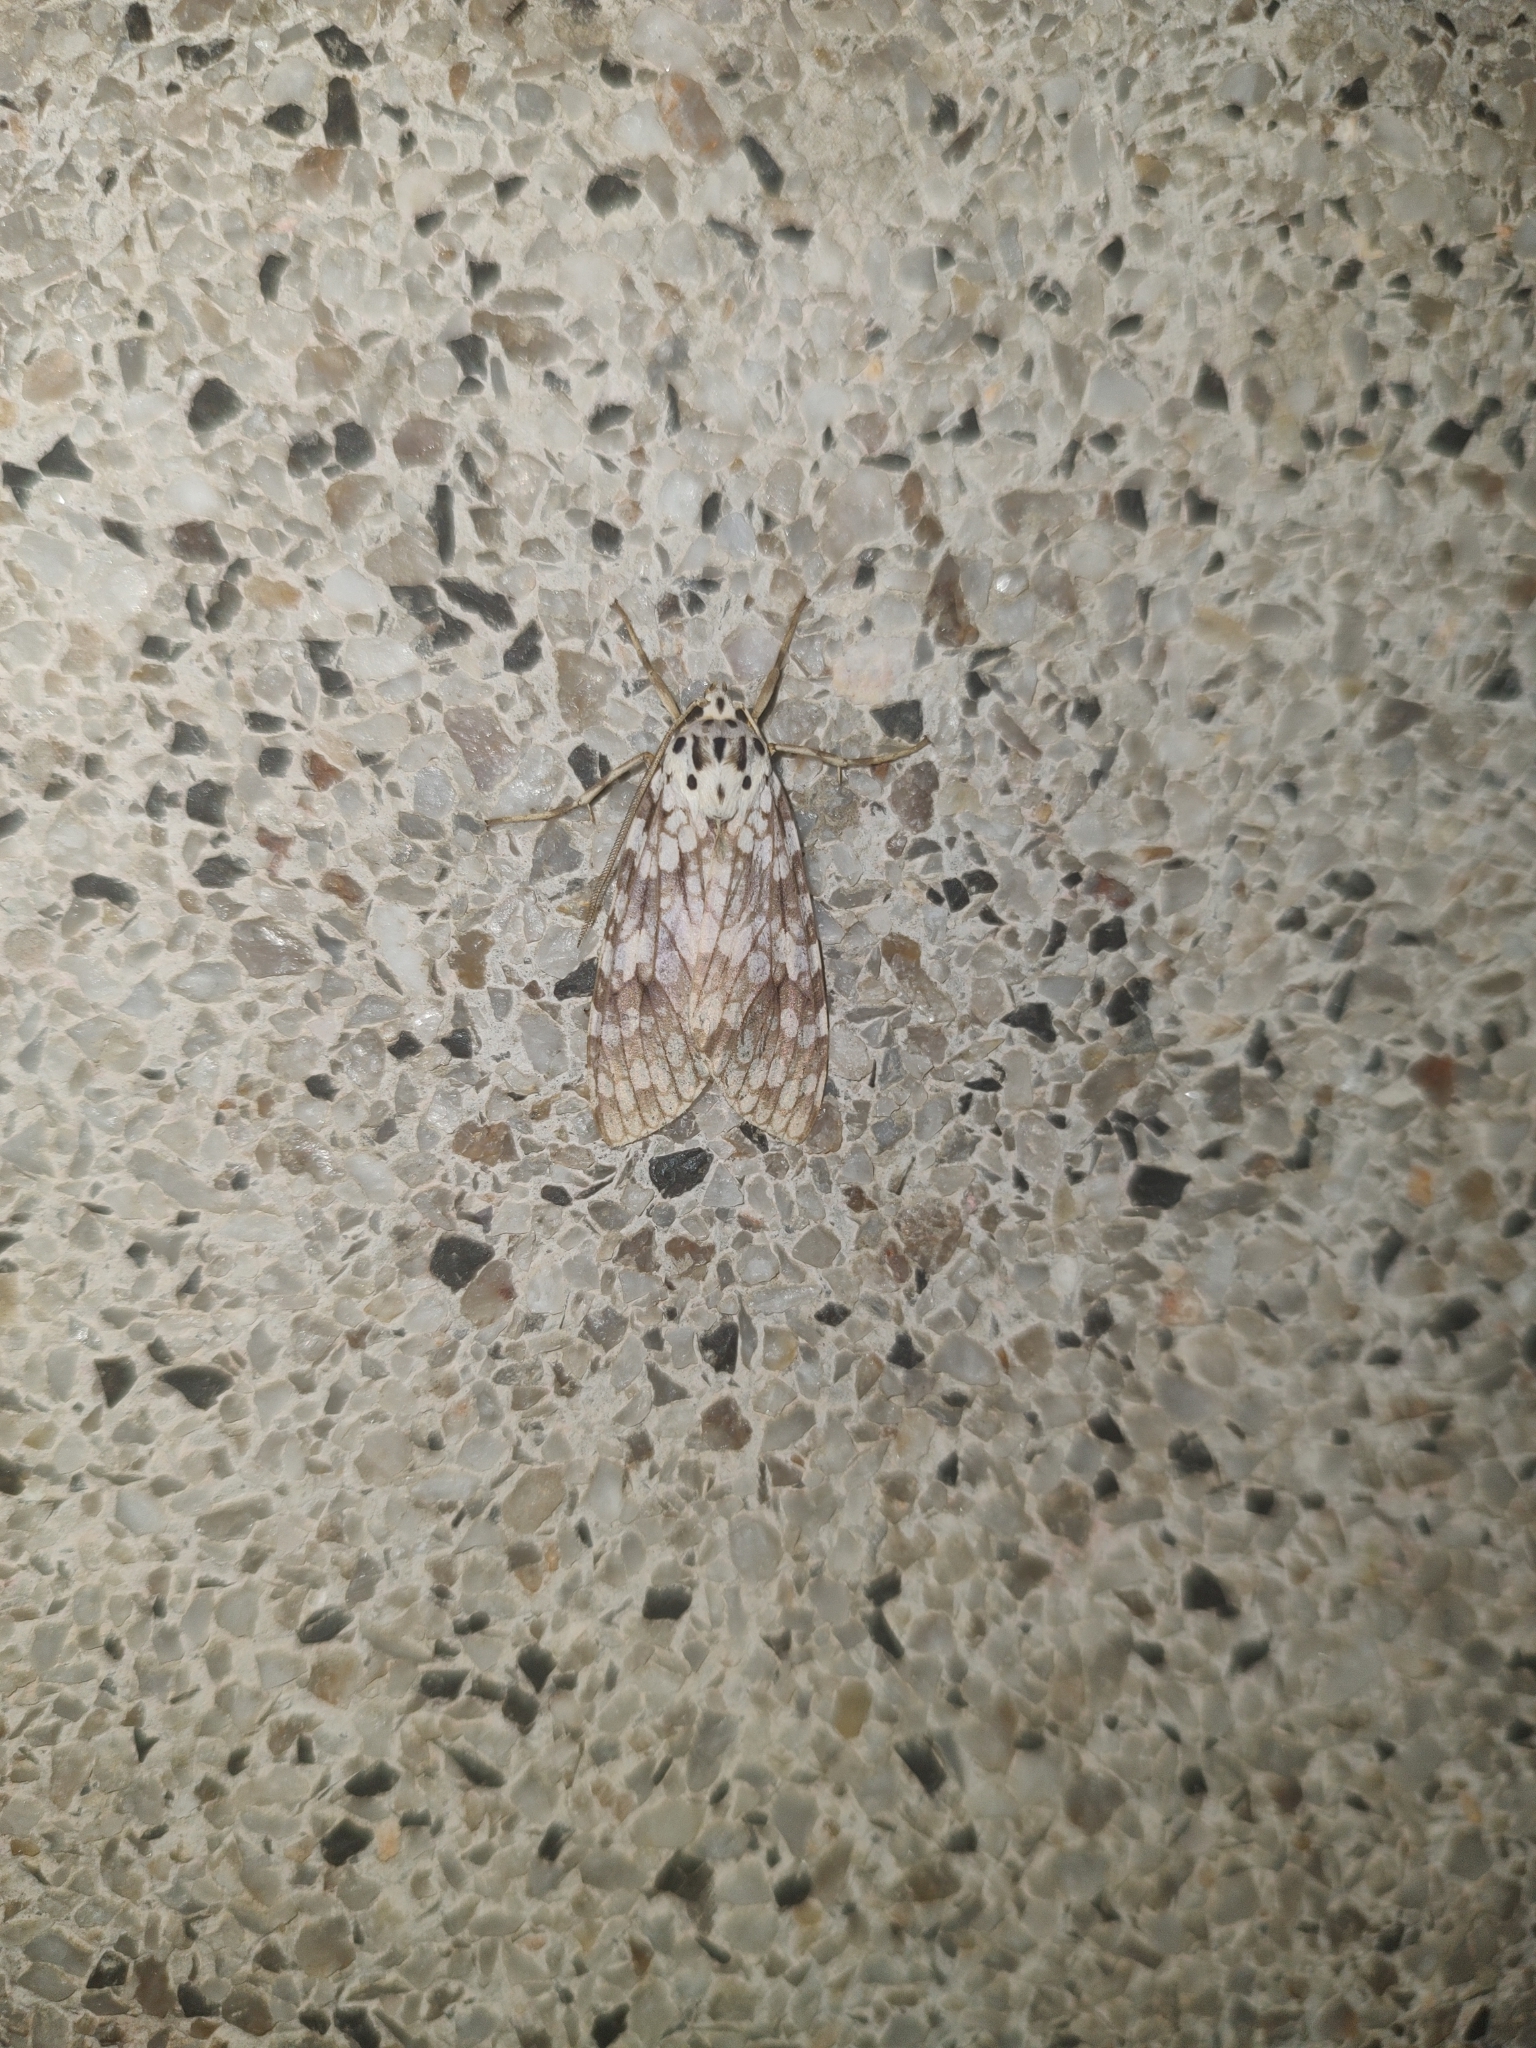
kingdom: Animalia
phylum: Arthropoda
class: Insecta
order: Lepidoptera
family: Erebidae
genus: Carales
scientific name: Carales astur
